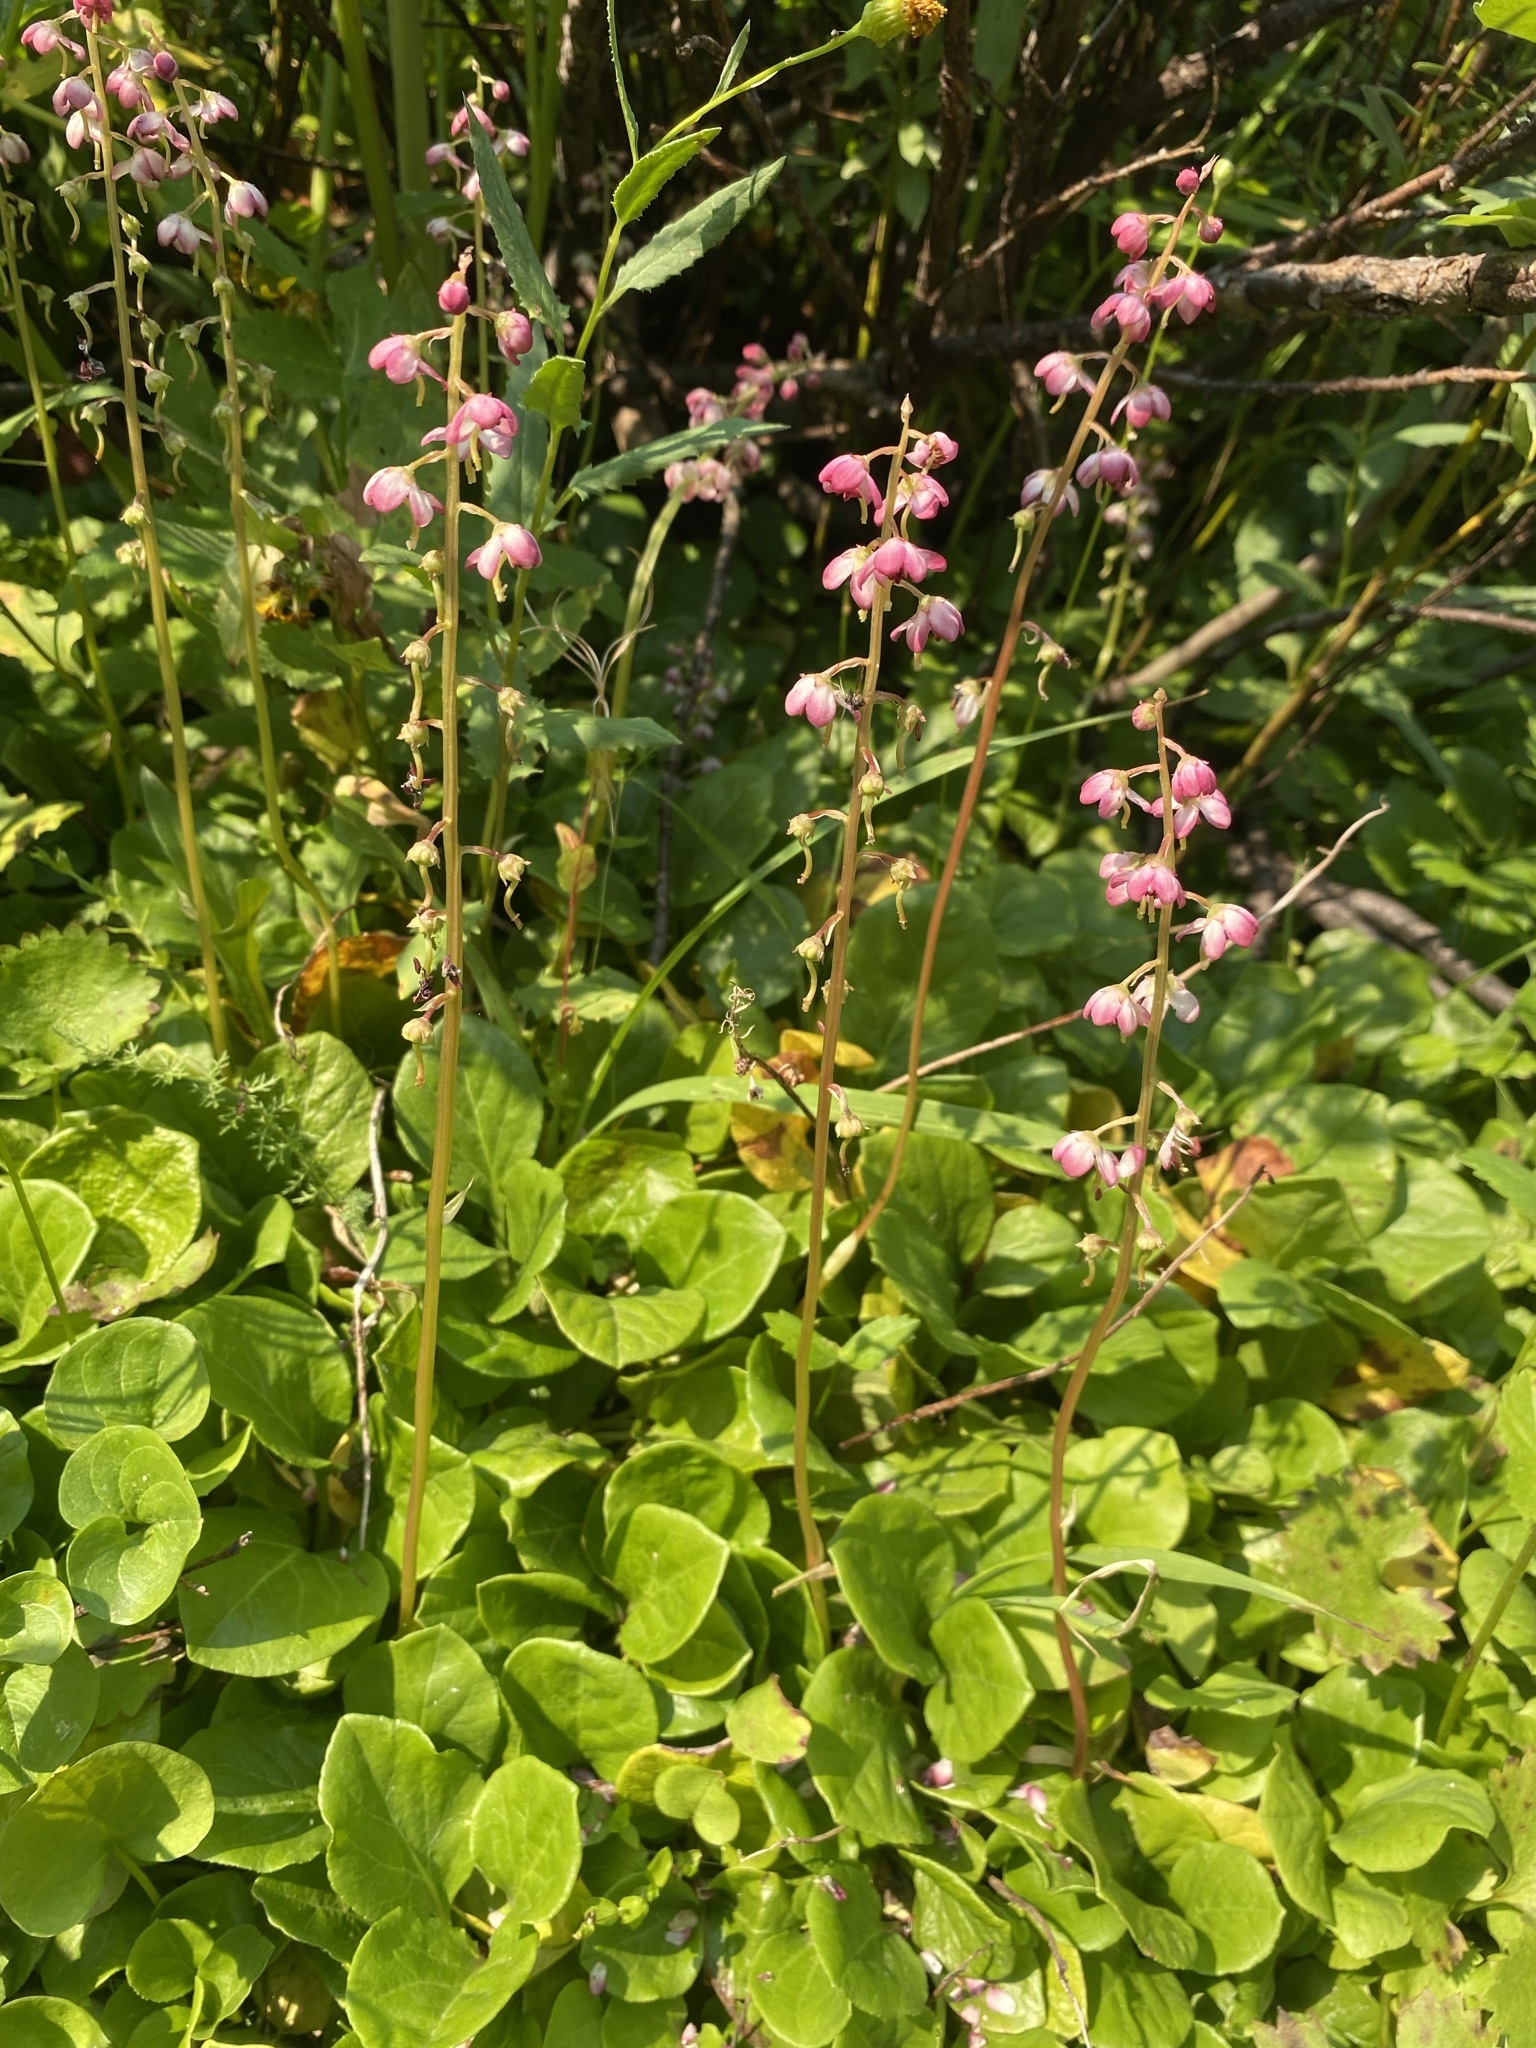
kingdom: Plantae
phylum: Tracheophyta
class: Magnoliopsida
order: Ericales
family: Ericaceae
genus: Pyrola
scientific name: Pyrola asarifolia
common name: Bog wintergreen
